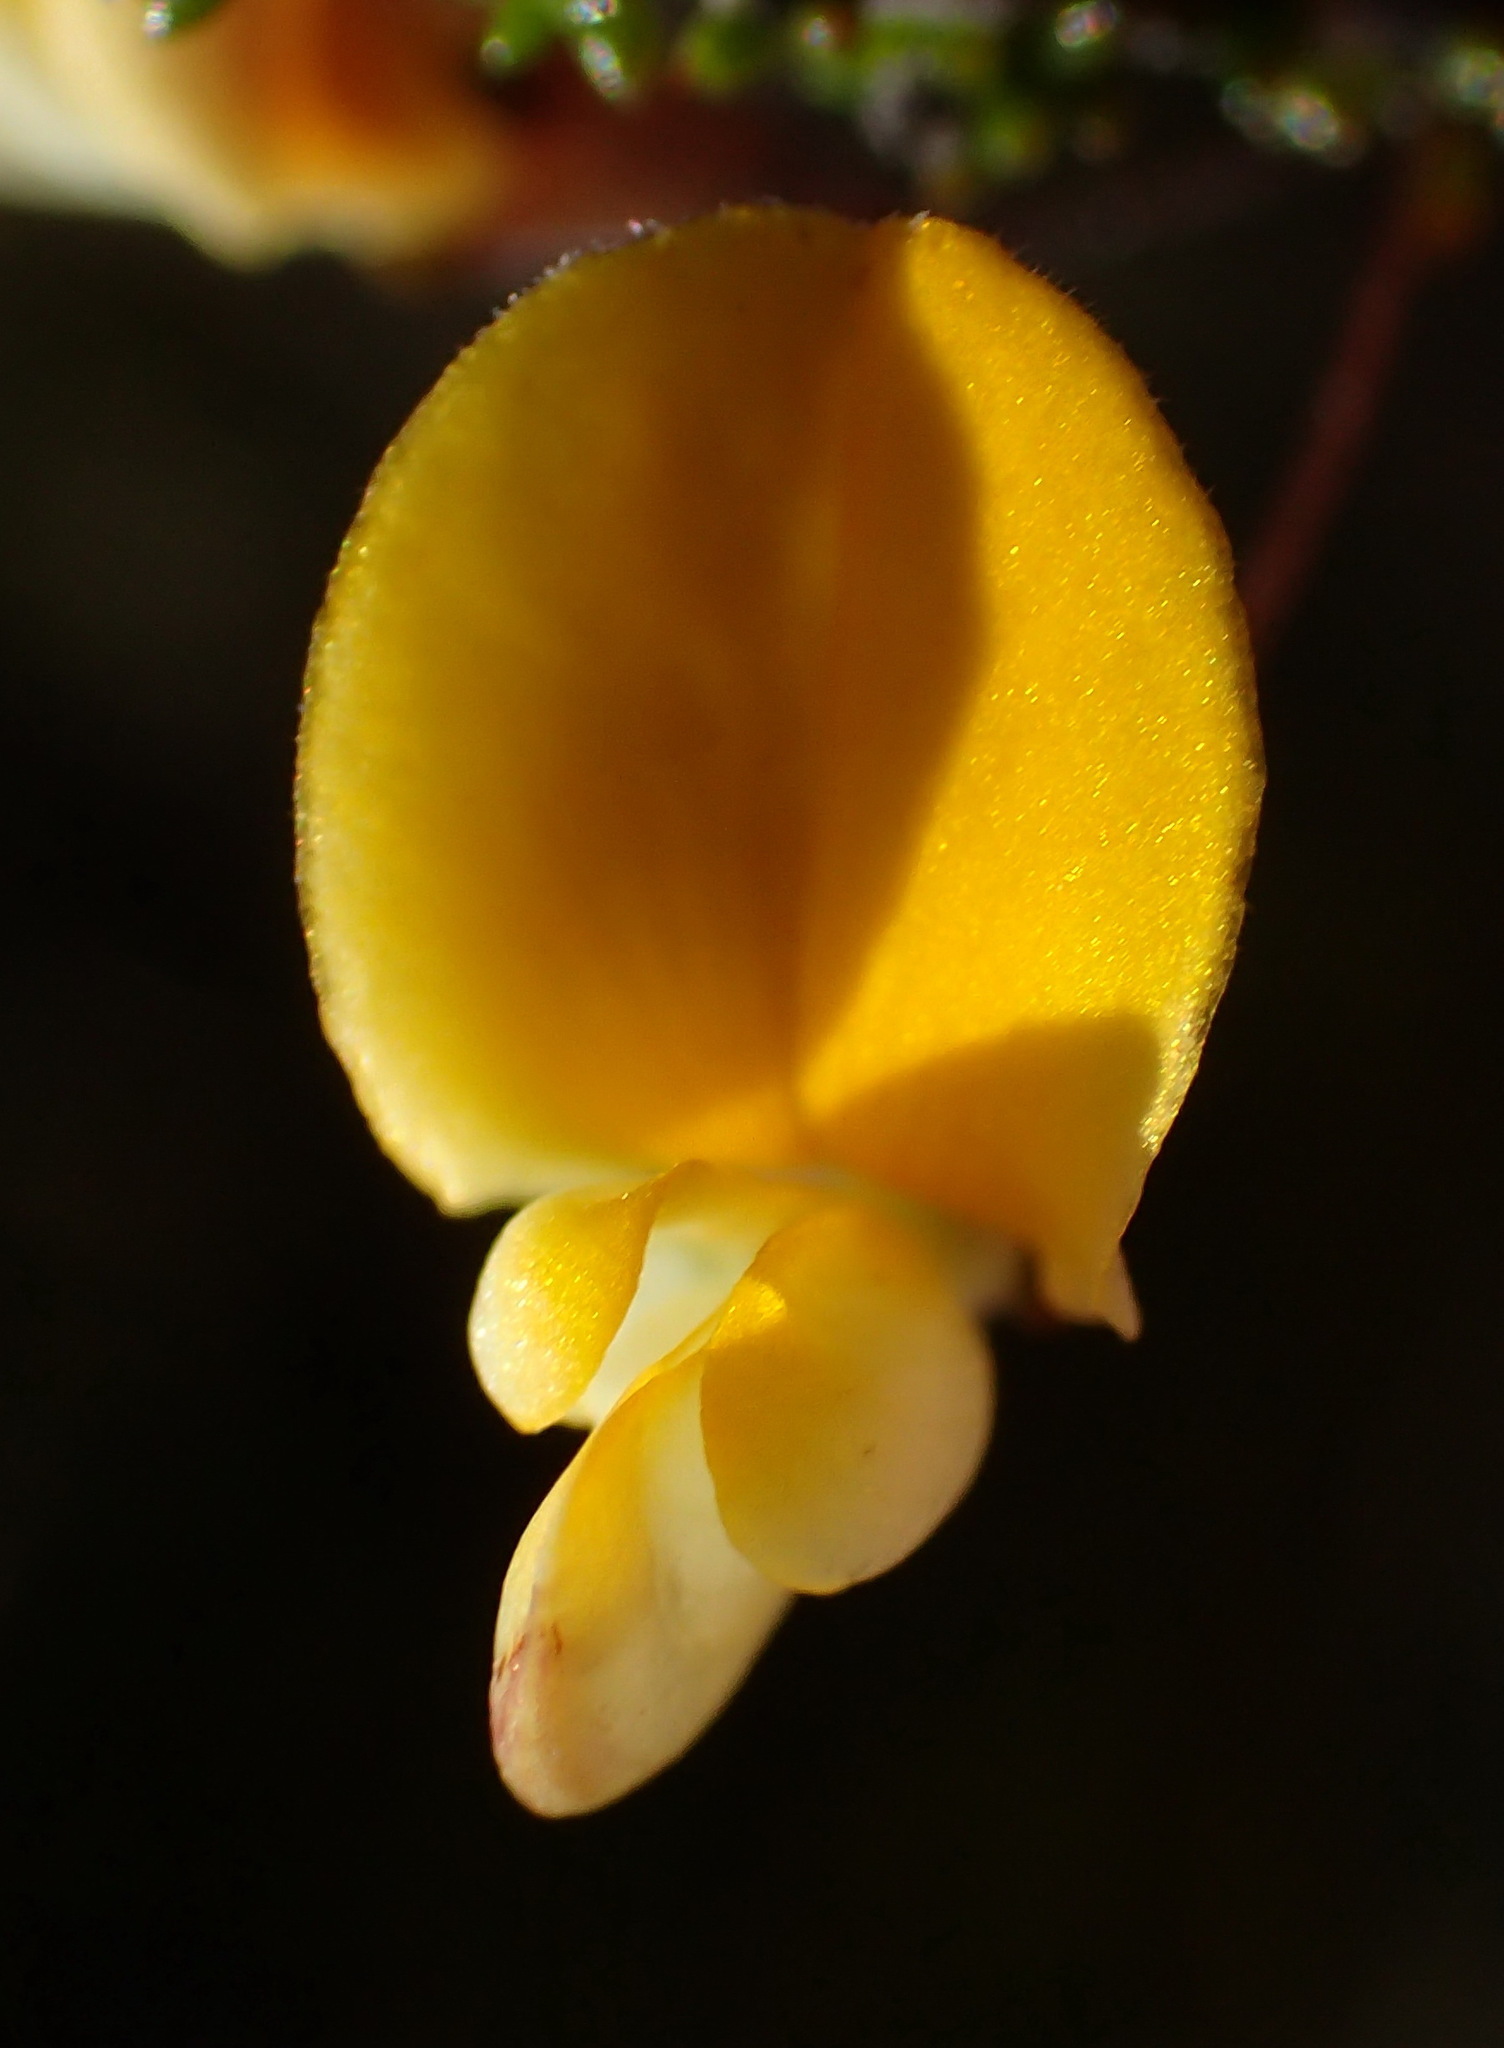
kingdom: Plantae
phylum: Tracheophyta
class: Magnoliopsida
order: Fabales
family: Fabaceae
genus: Aspalathus
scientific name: Aspalathus tenuissima
